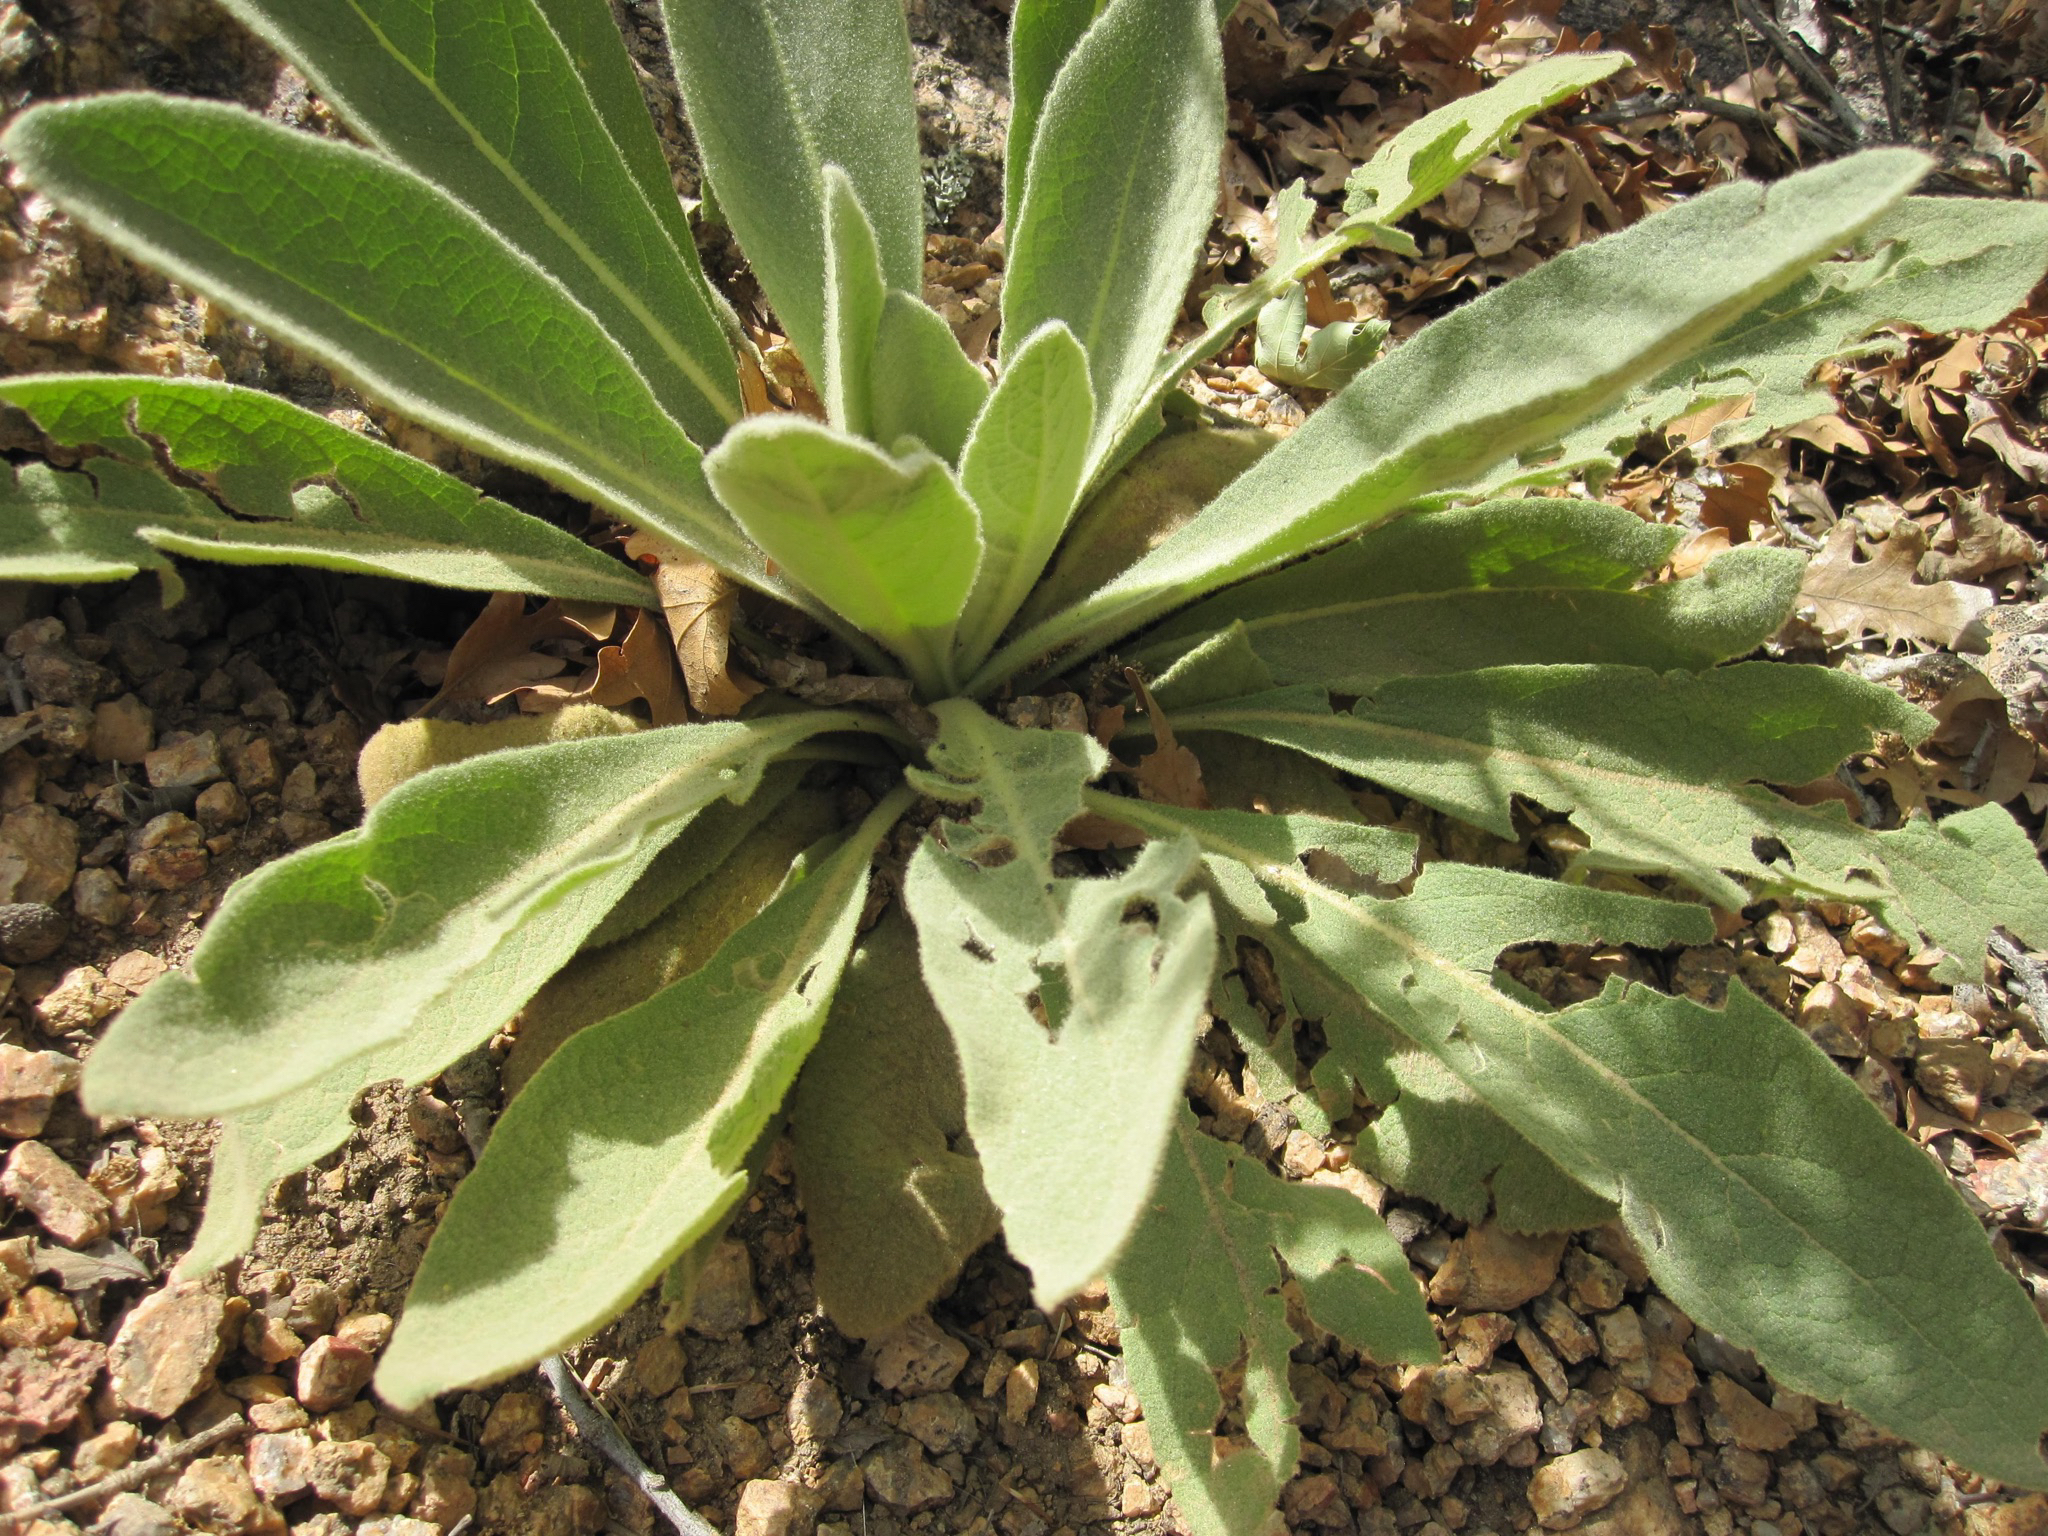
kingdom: Plantae
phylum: Tracheophyta
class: Magnoliopsida
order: Lamiales
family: Scrophulariaceae
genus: Verbascum
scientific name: Verbascum thapsus
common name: Common mullein
